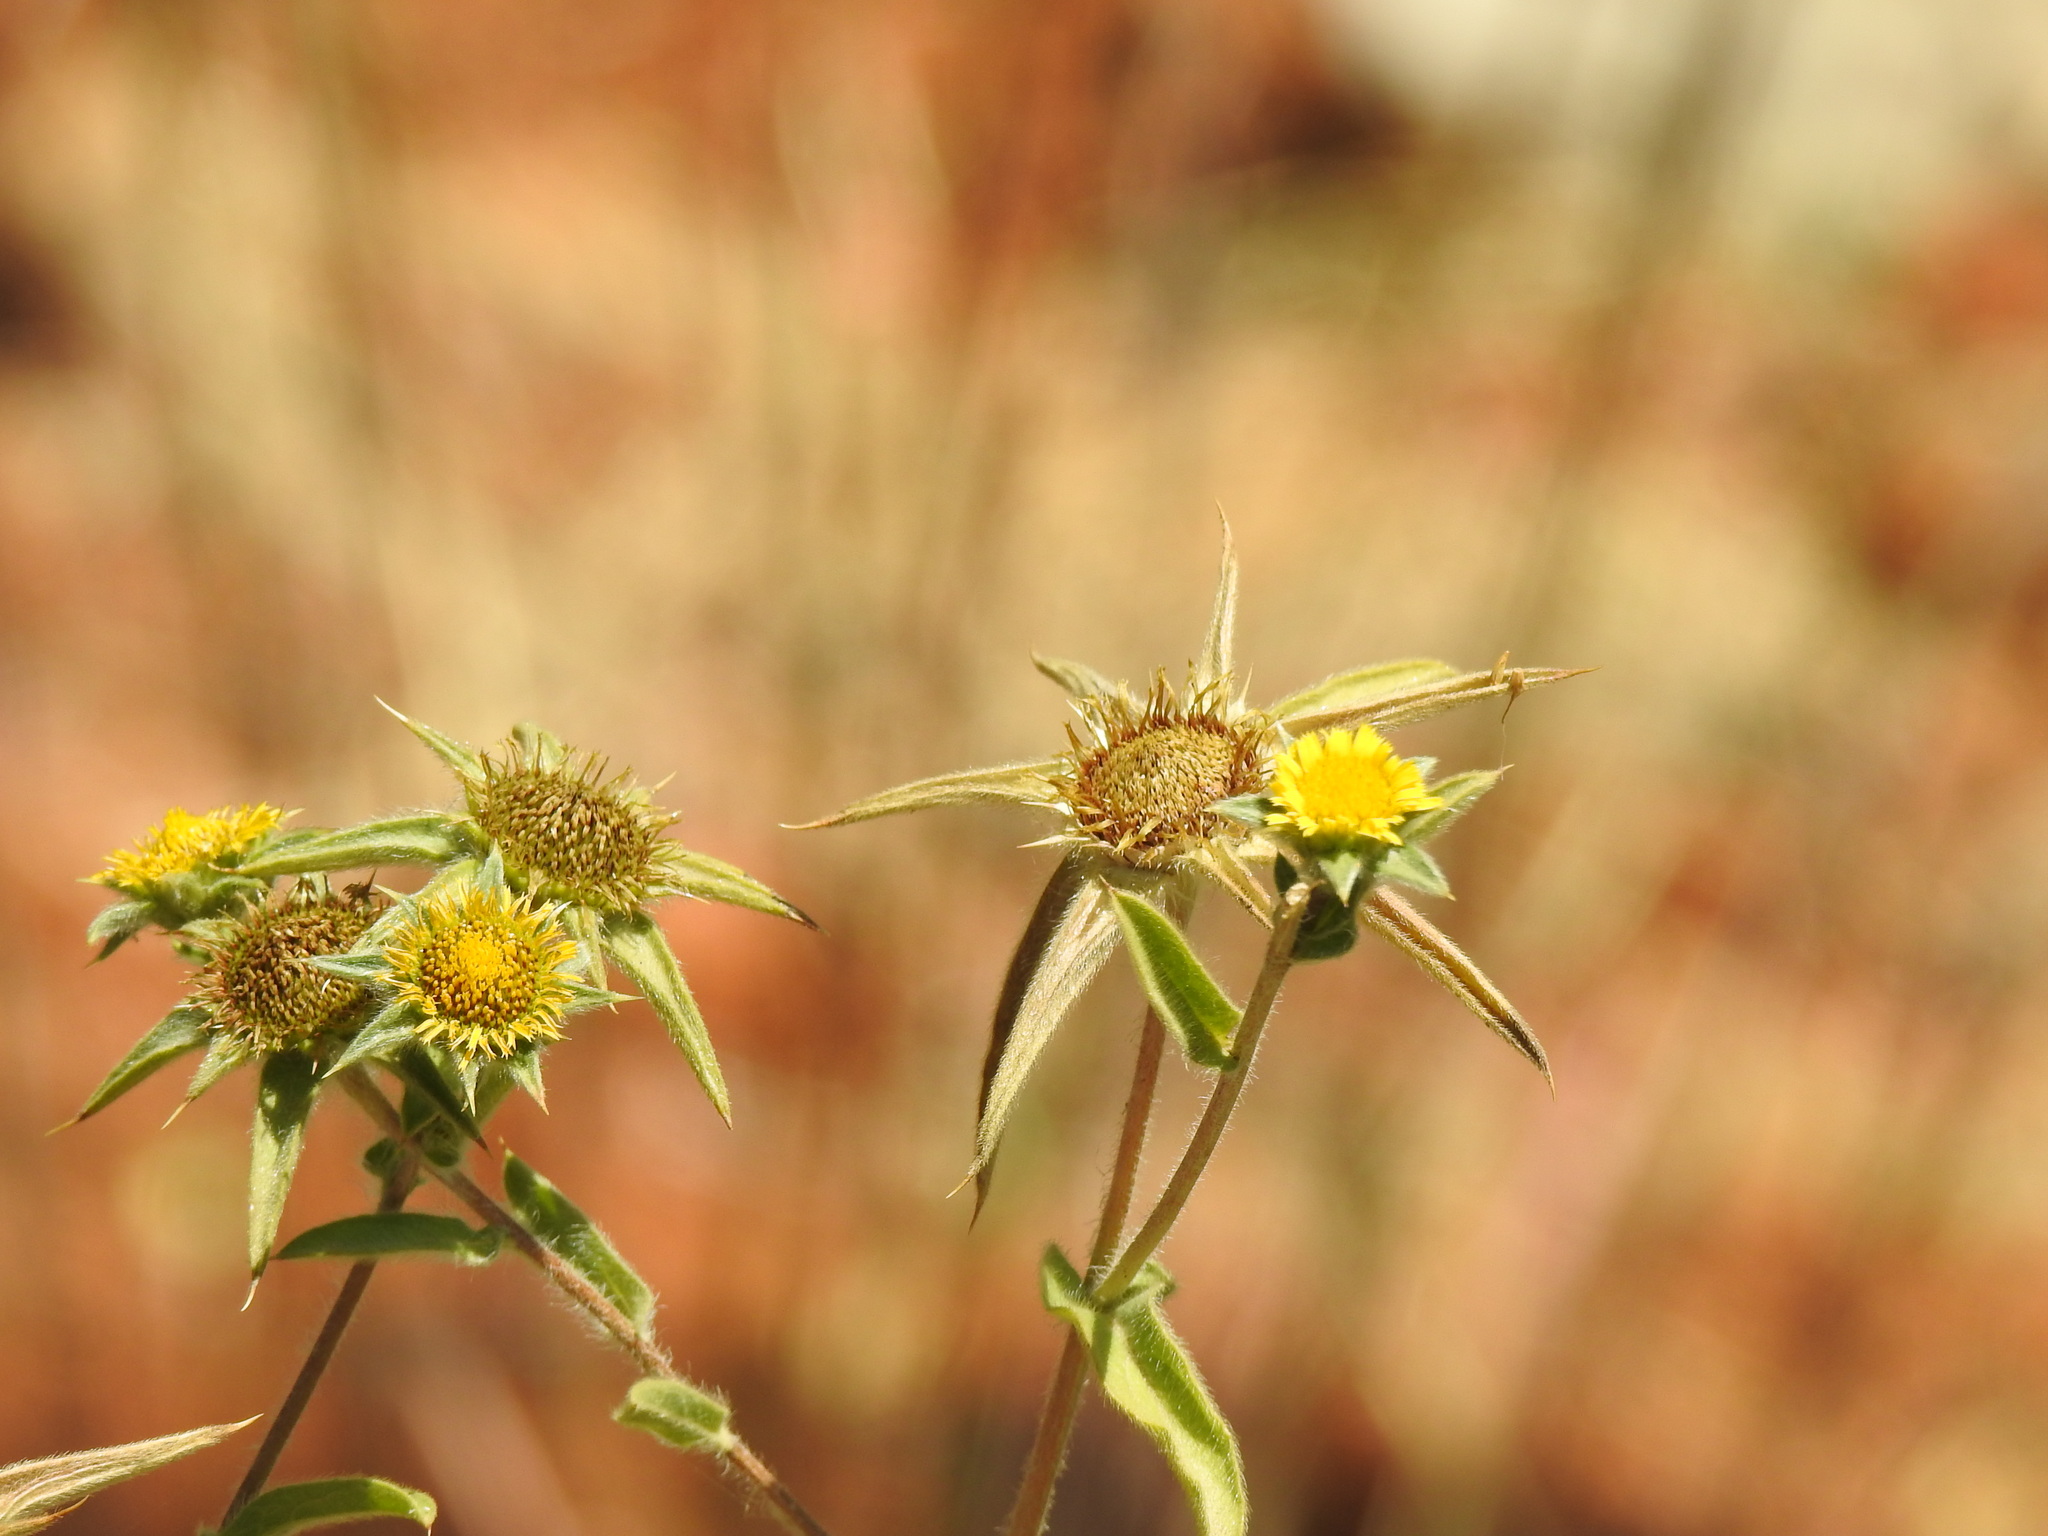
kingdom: Plantae
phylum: Tracheophyta
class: Magnoliopsida
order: Asterales
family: Asteraceae
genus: Pallenis
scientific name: Pallenis spinosa
